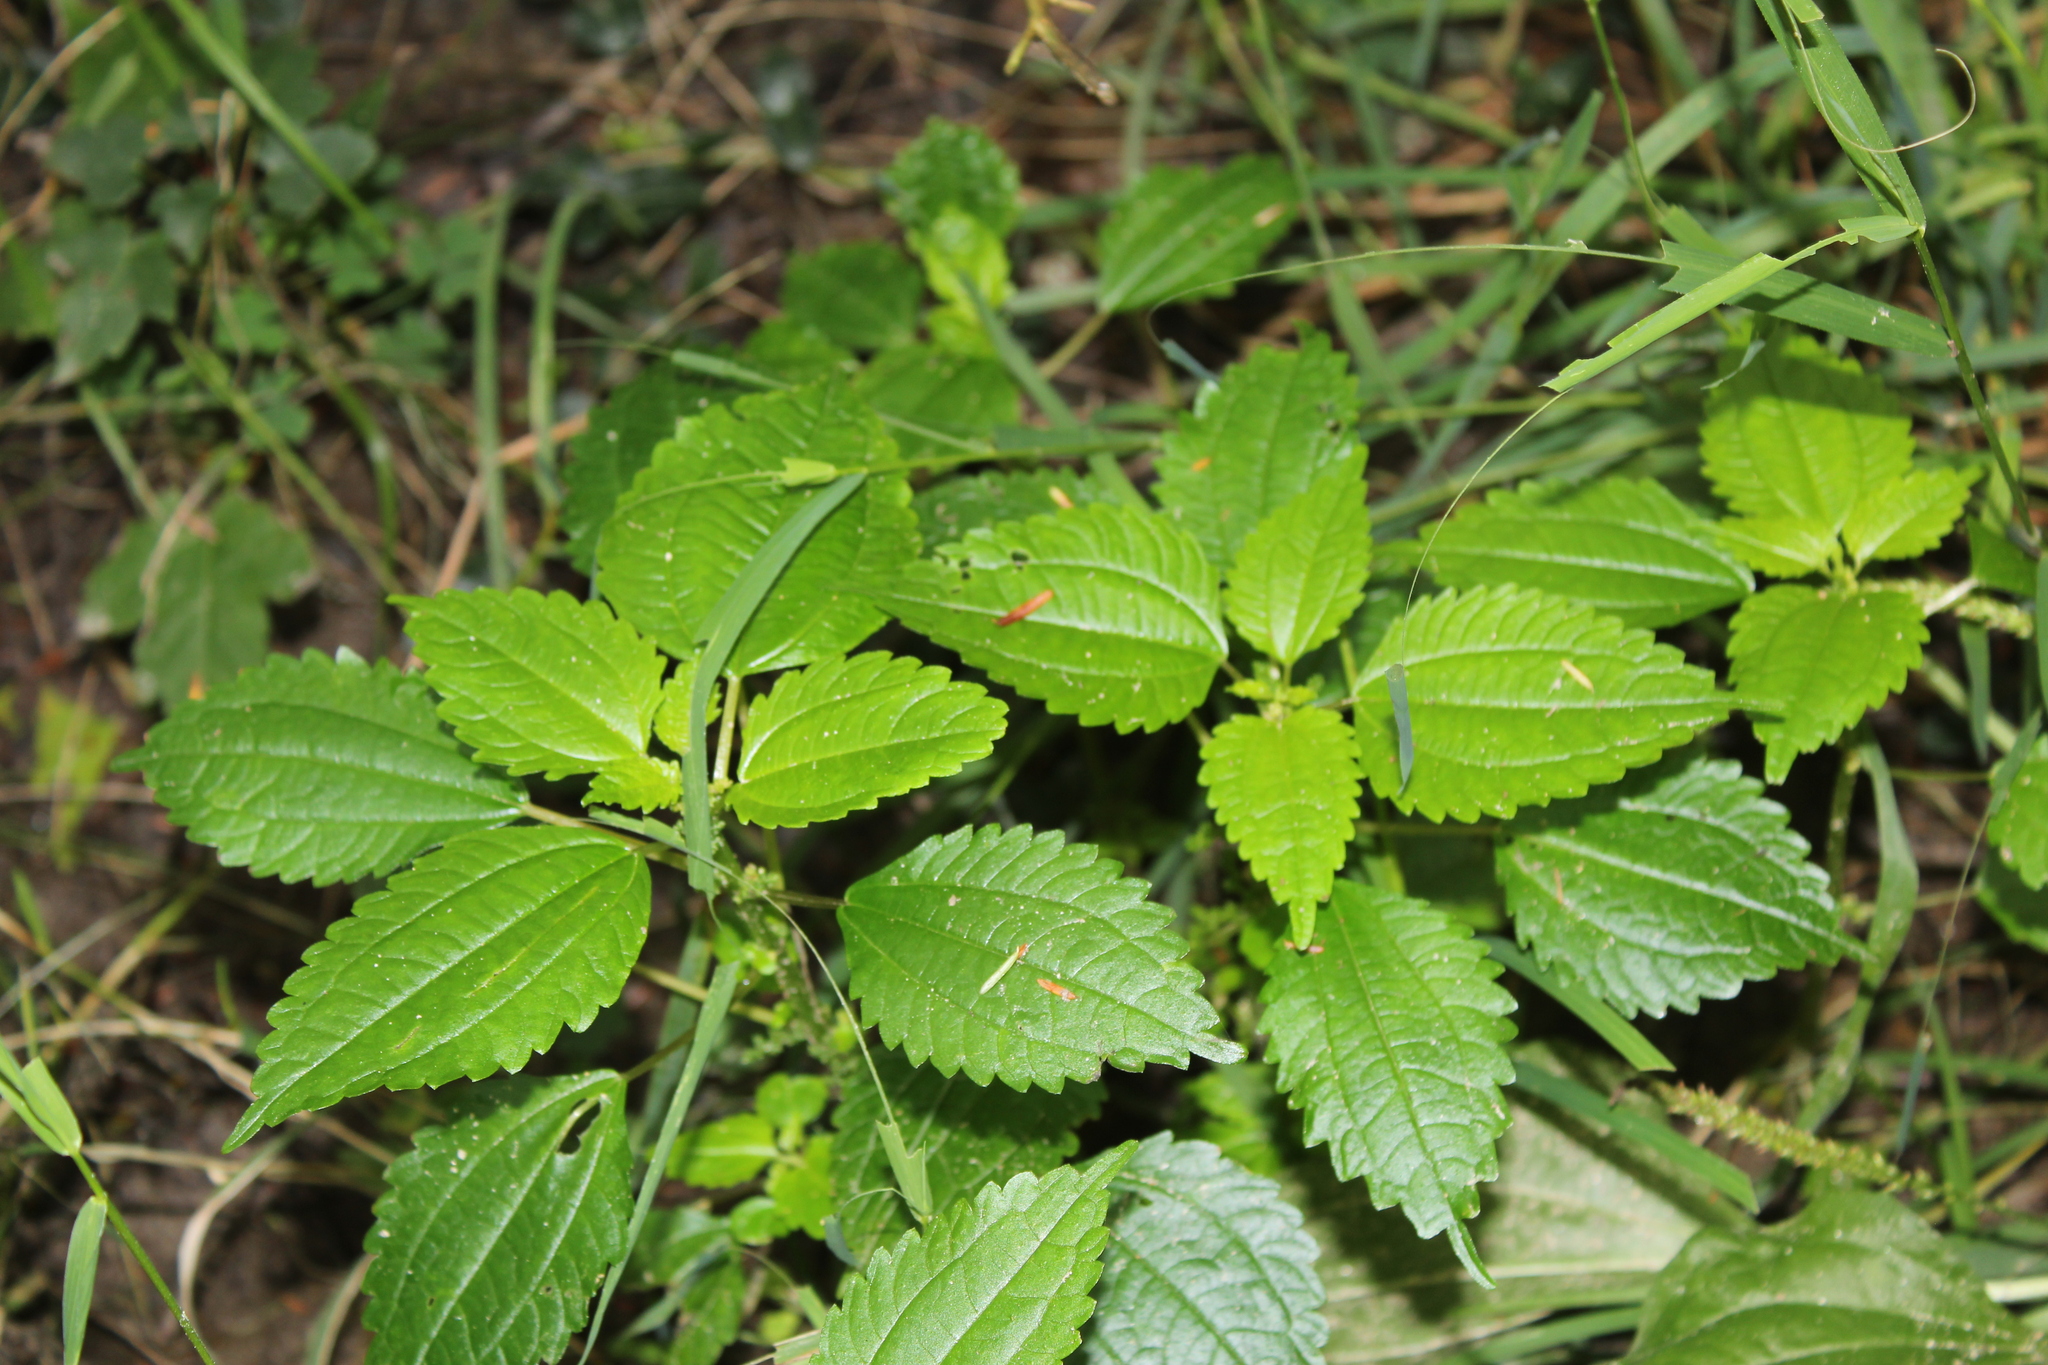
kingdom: Plantae
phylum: Tracheophyta
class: Magnoliopsida
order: Rosales
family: Urticaceae
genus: Pilea
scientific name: Pilea pumila
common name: Clearweed
